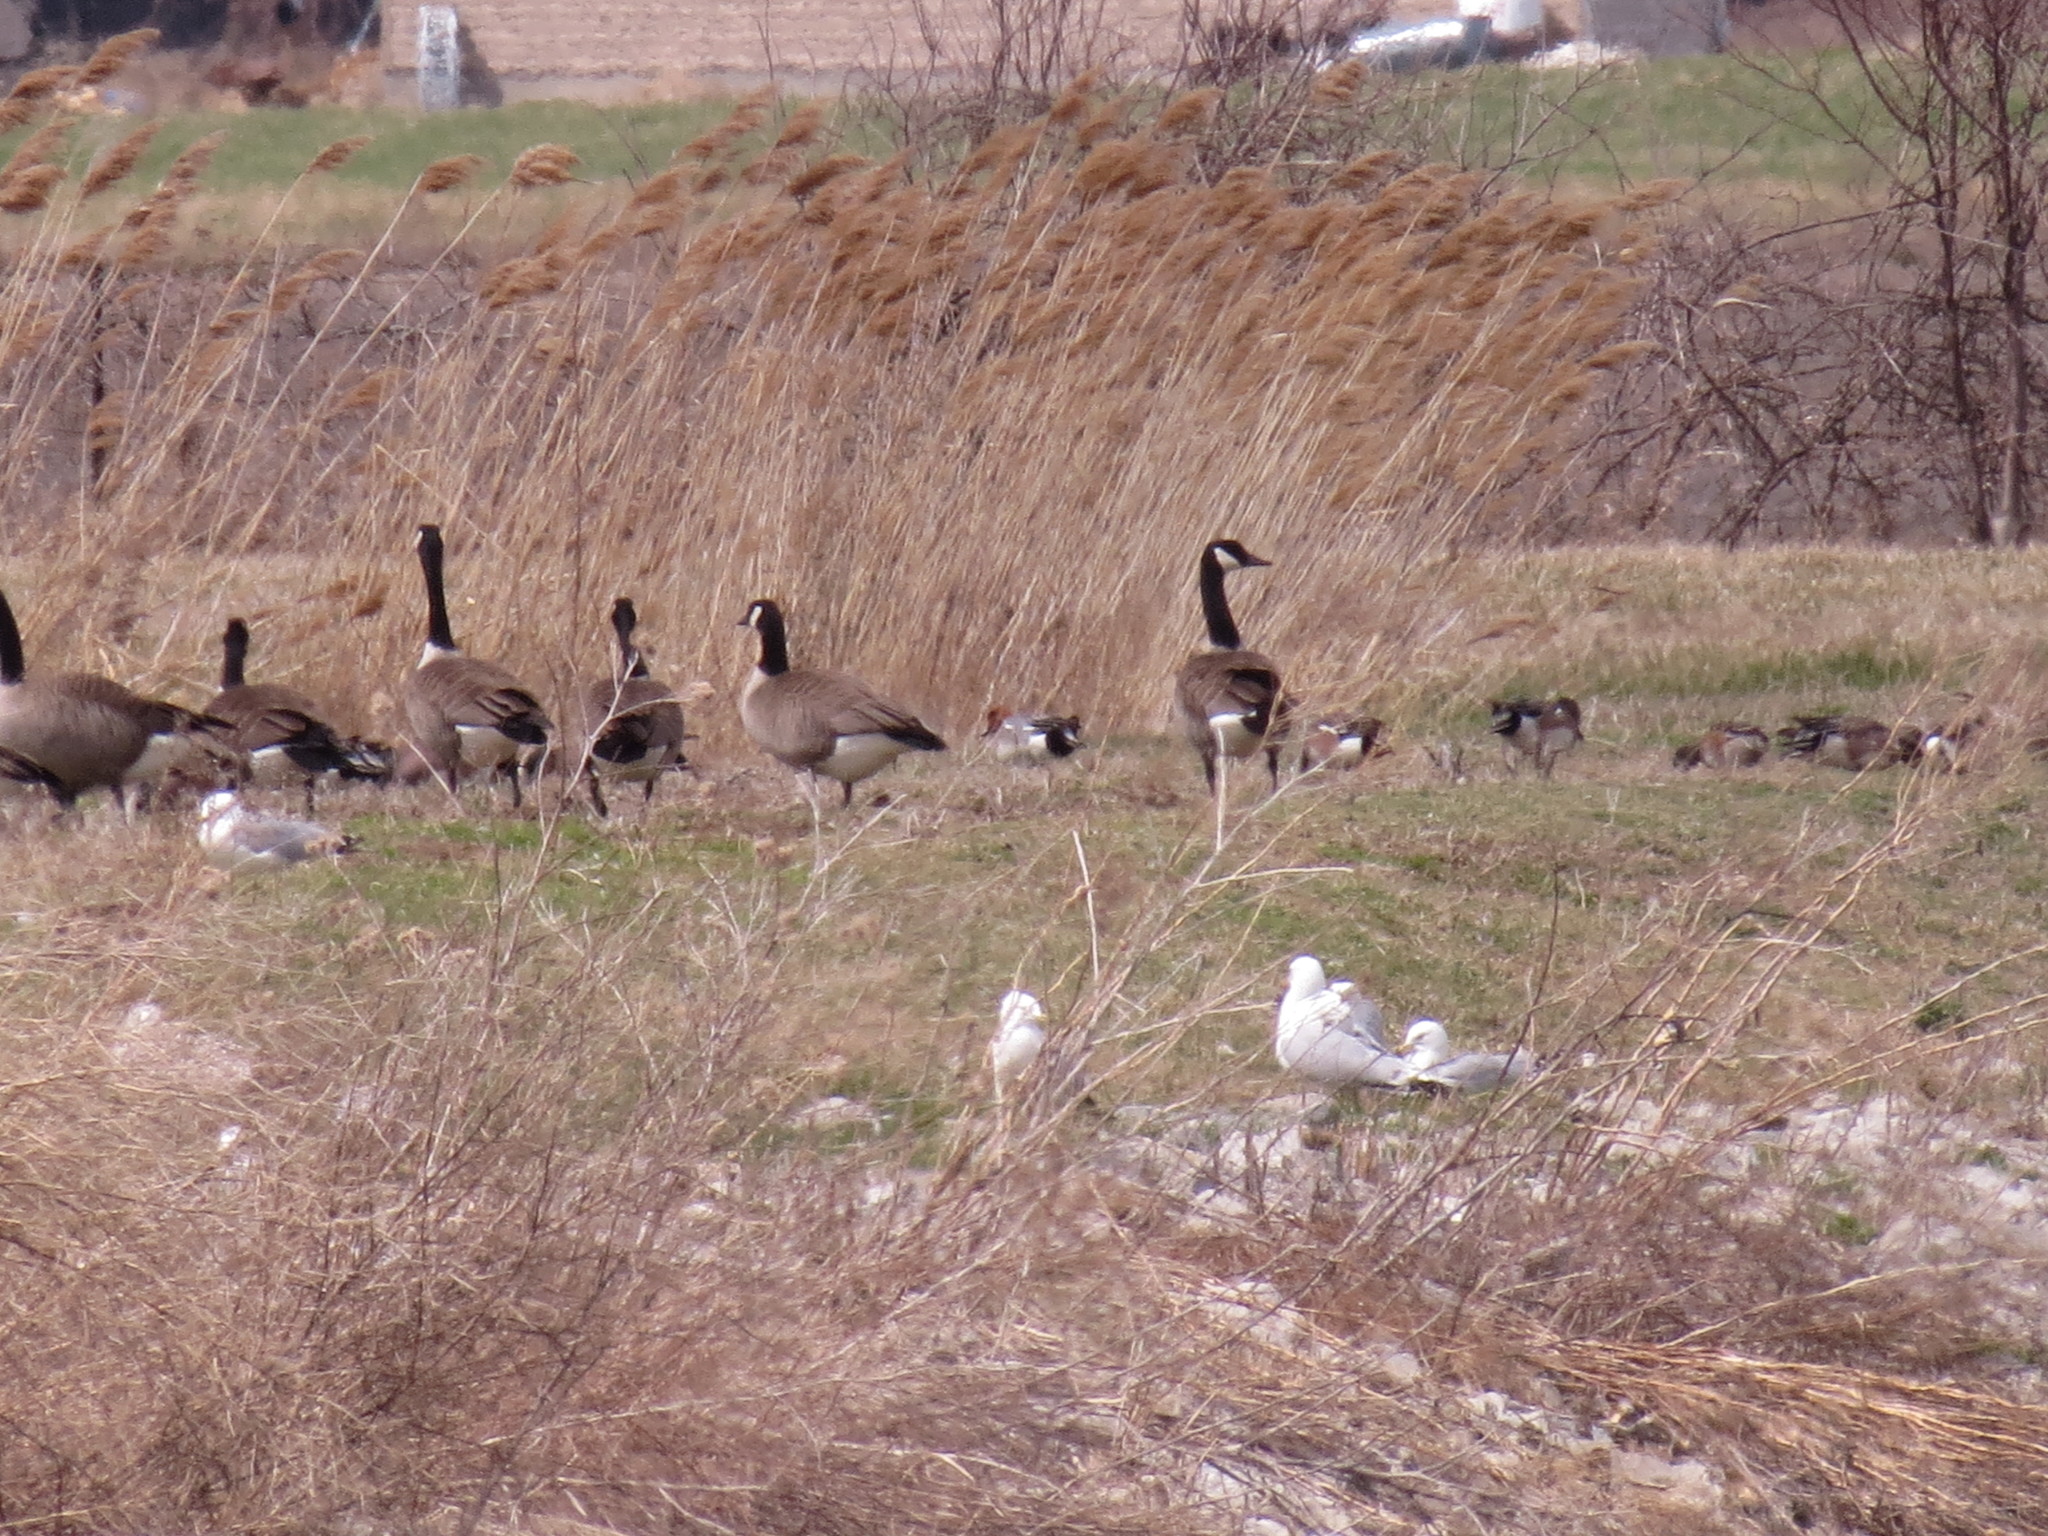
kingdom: Animalia
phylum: Chordata
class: Aves
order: Anseriformes
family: Anatidae
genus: Branta
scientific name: Branta canadensis
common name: Canada goose
